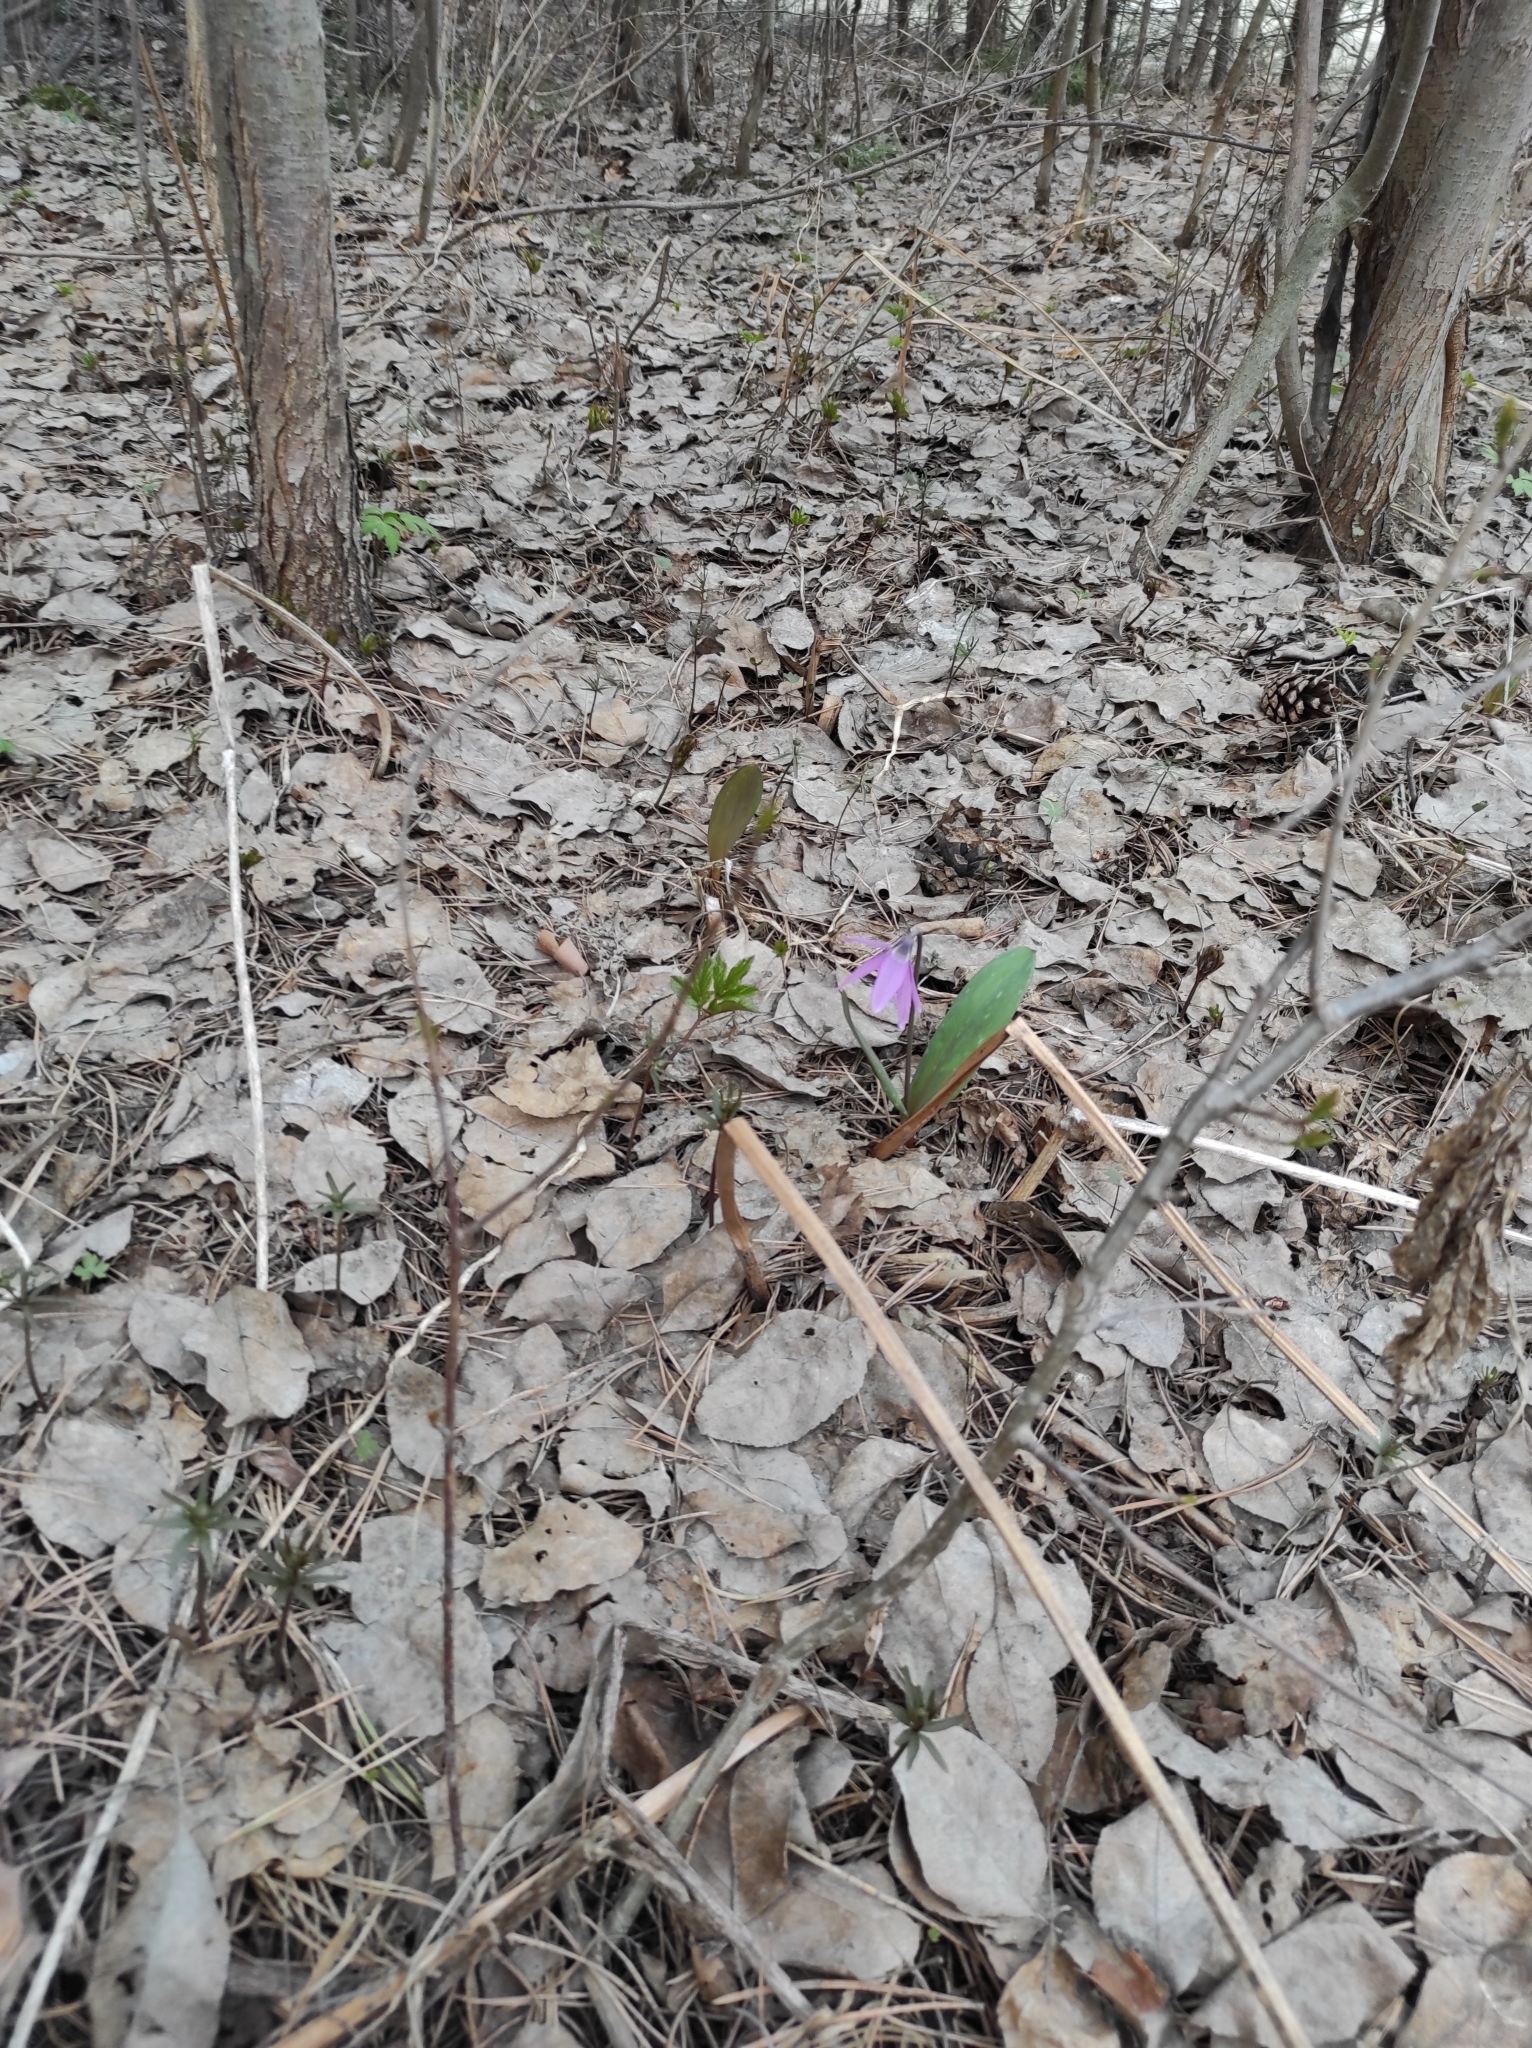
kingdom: Plantae
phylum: Tracheophyta
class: Liliopsida
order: Liliales
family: Liliaceae
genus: Erythronium
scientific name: Erythronium sibiricum
